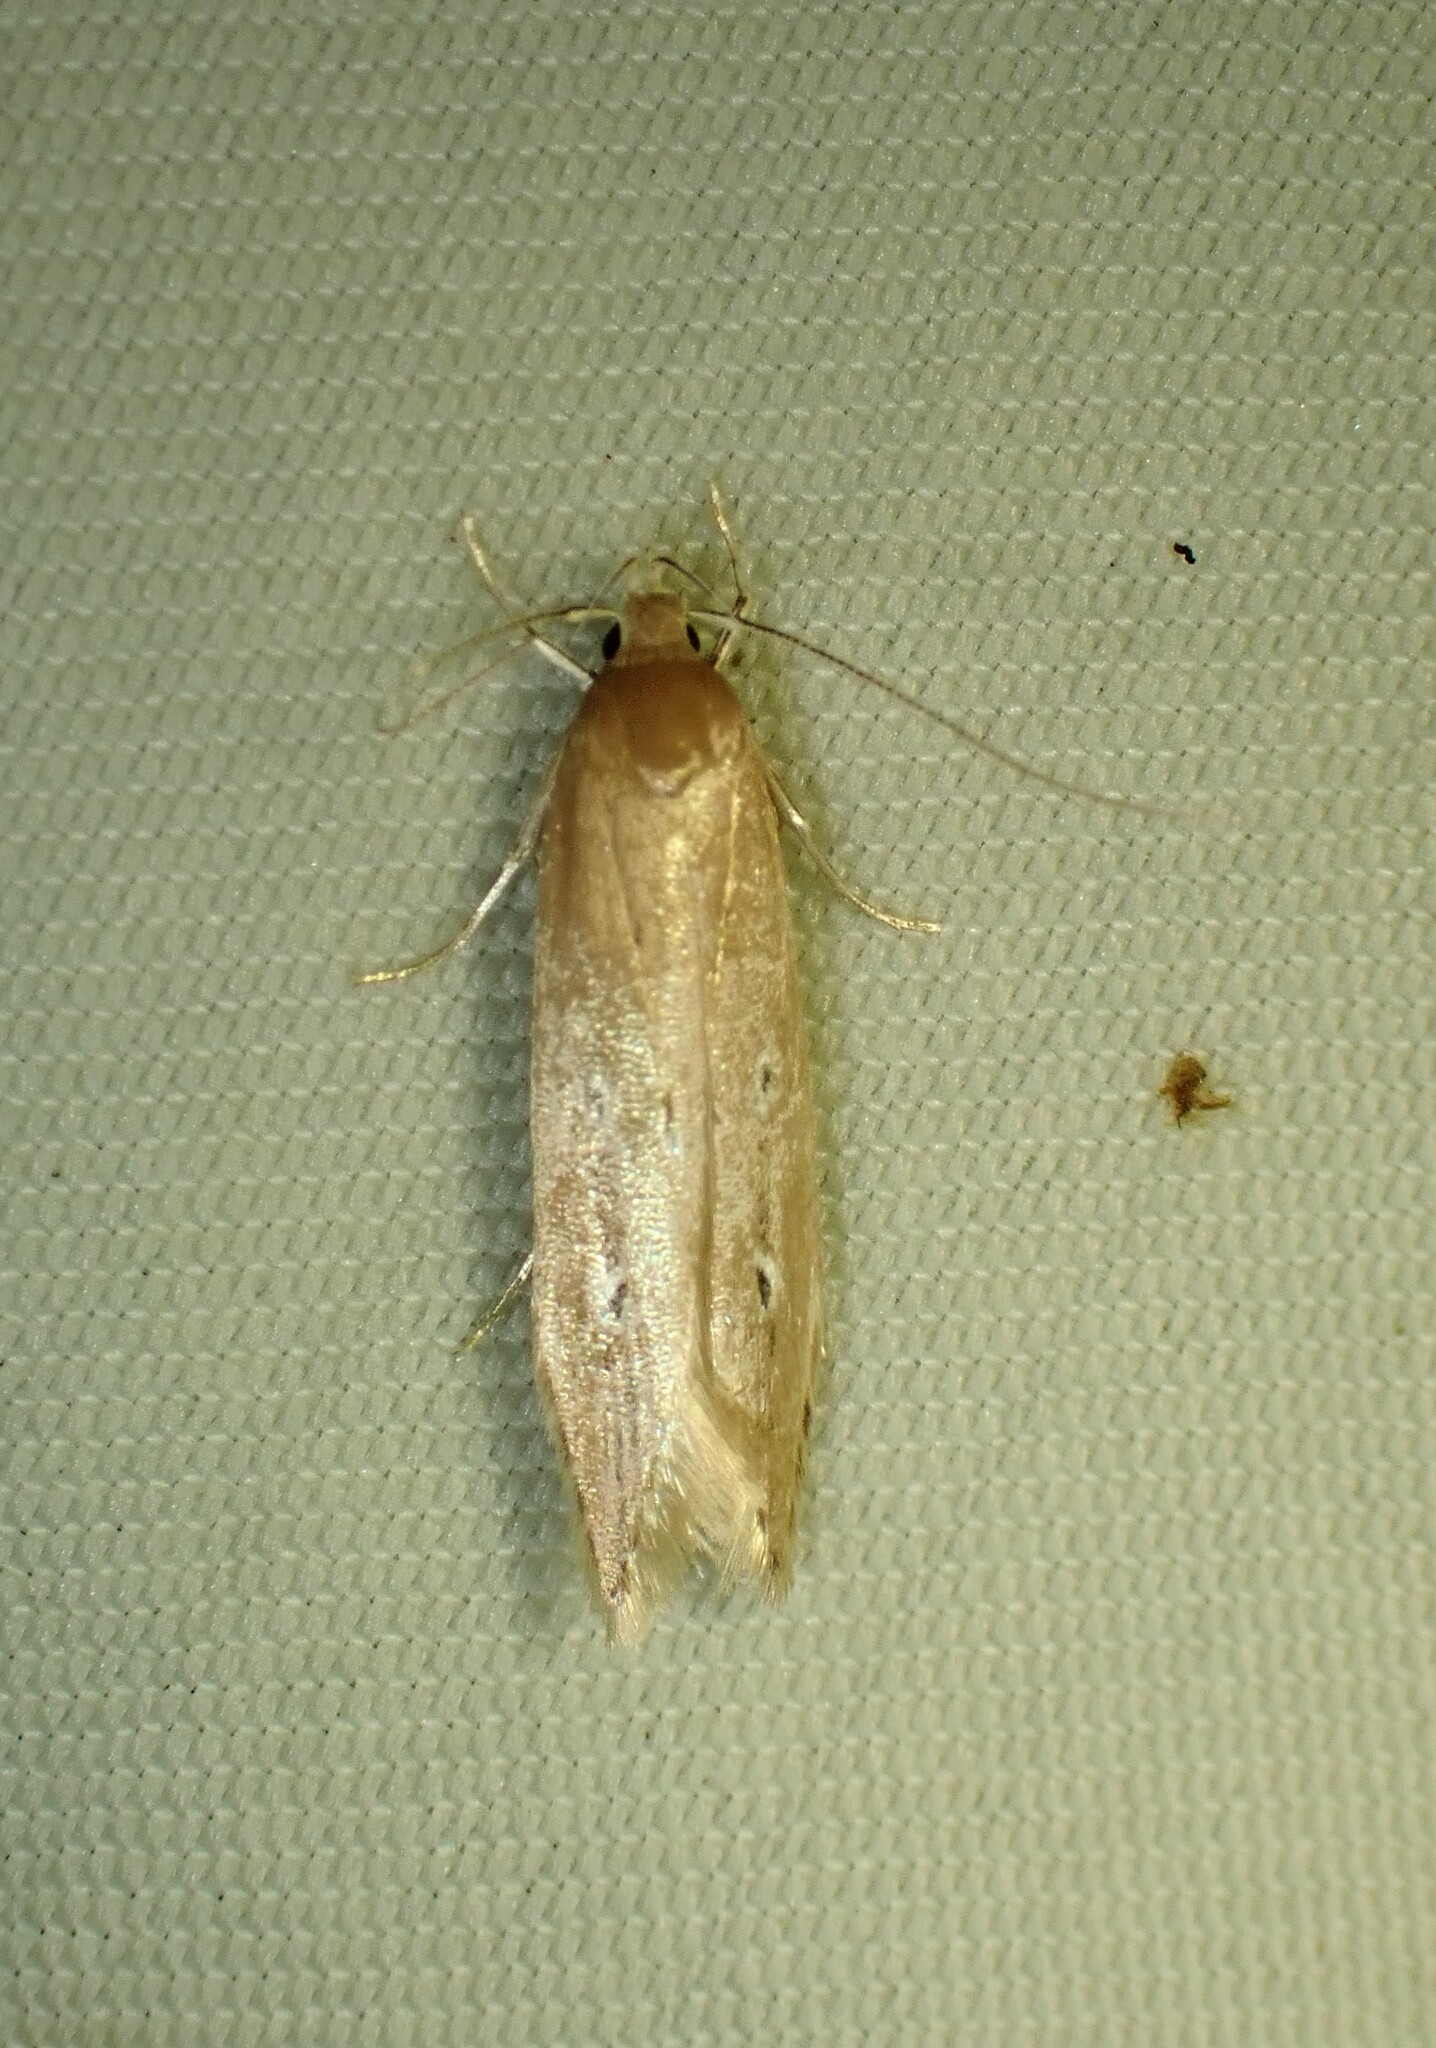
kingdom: Animalia
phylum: Arthropoda
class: Insecta
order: Lepidoptera
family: Cosmopterigidae
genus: Limnaecia
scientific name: Limnaecia phragmitella
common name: Bulrush cosmet
